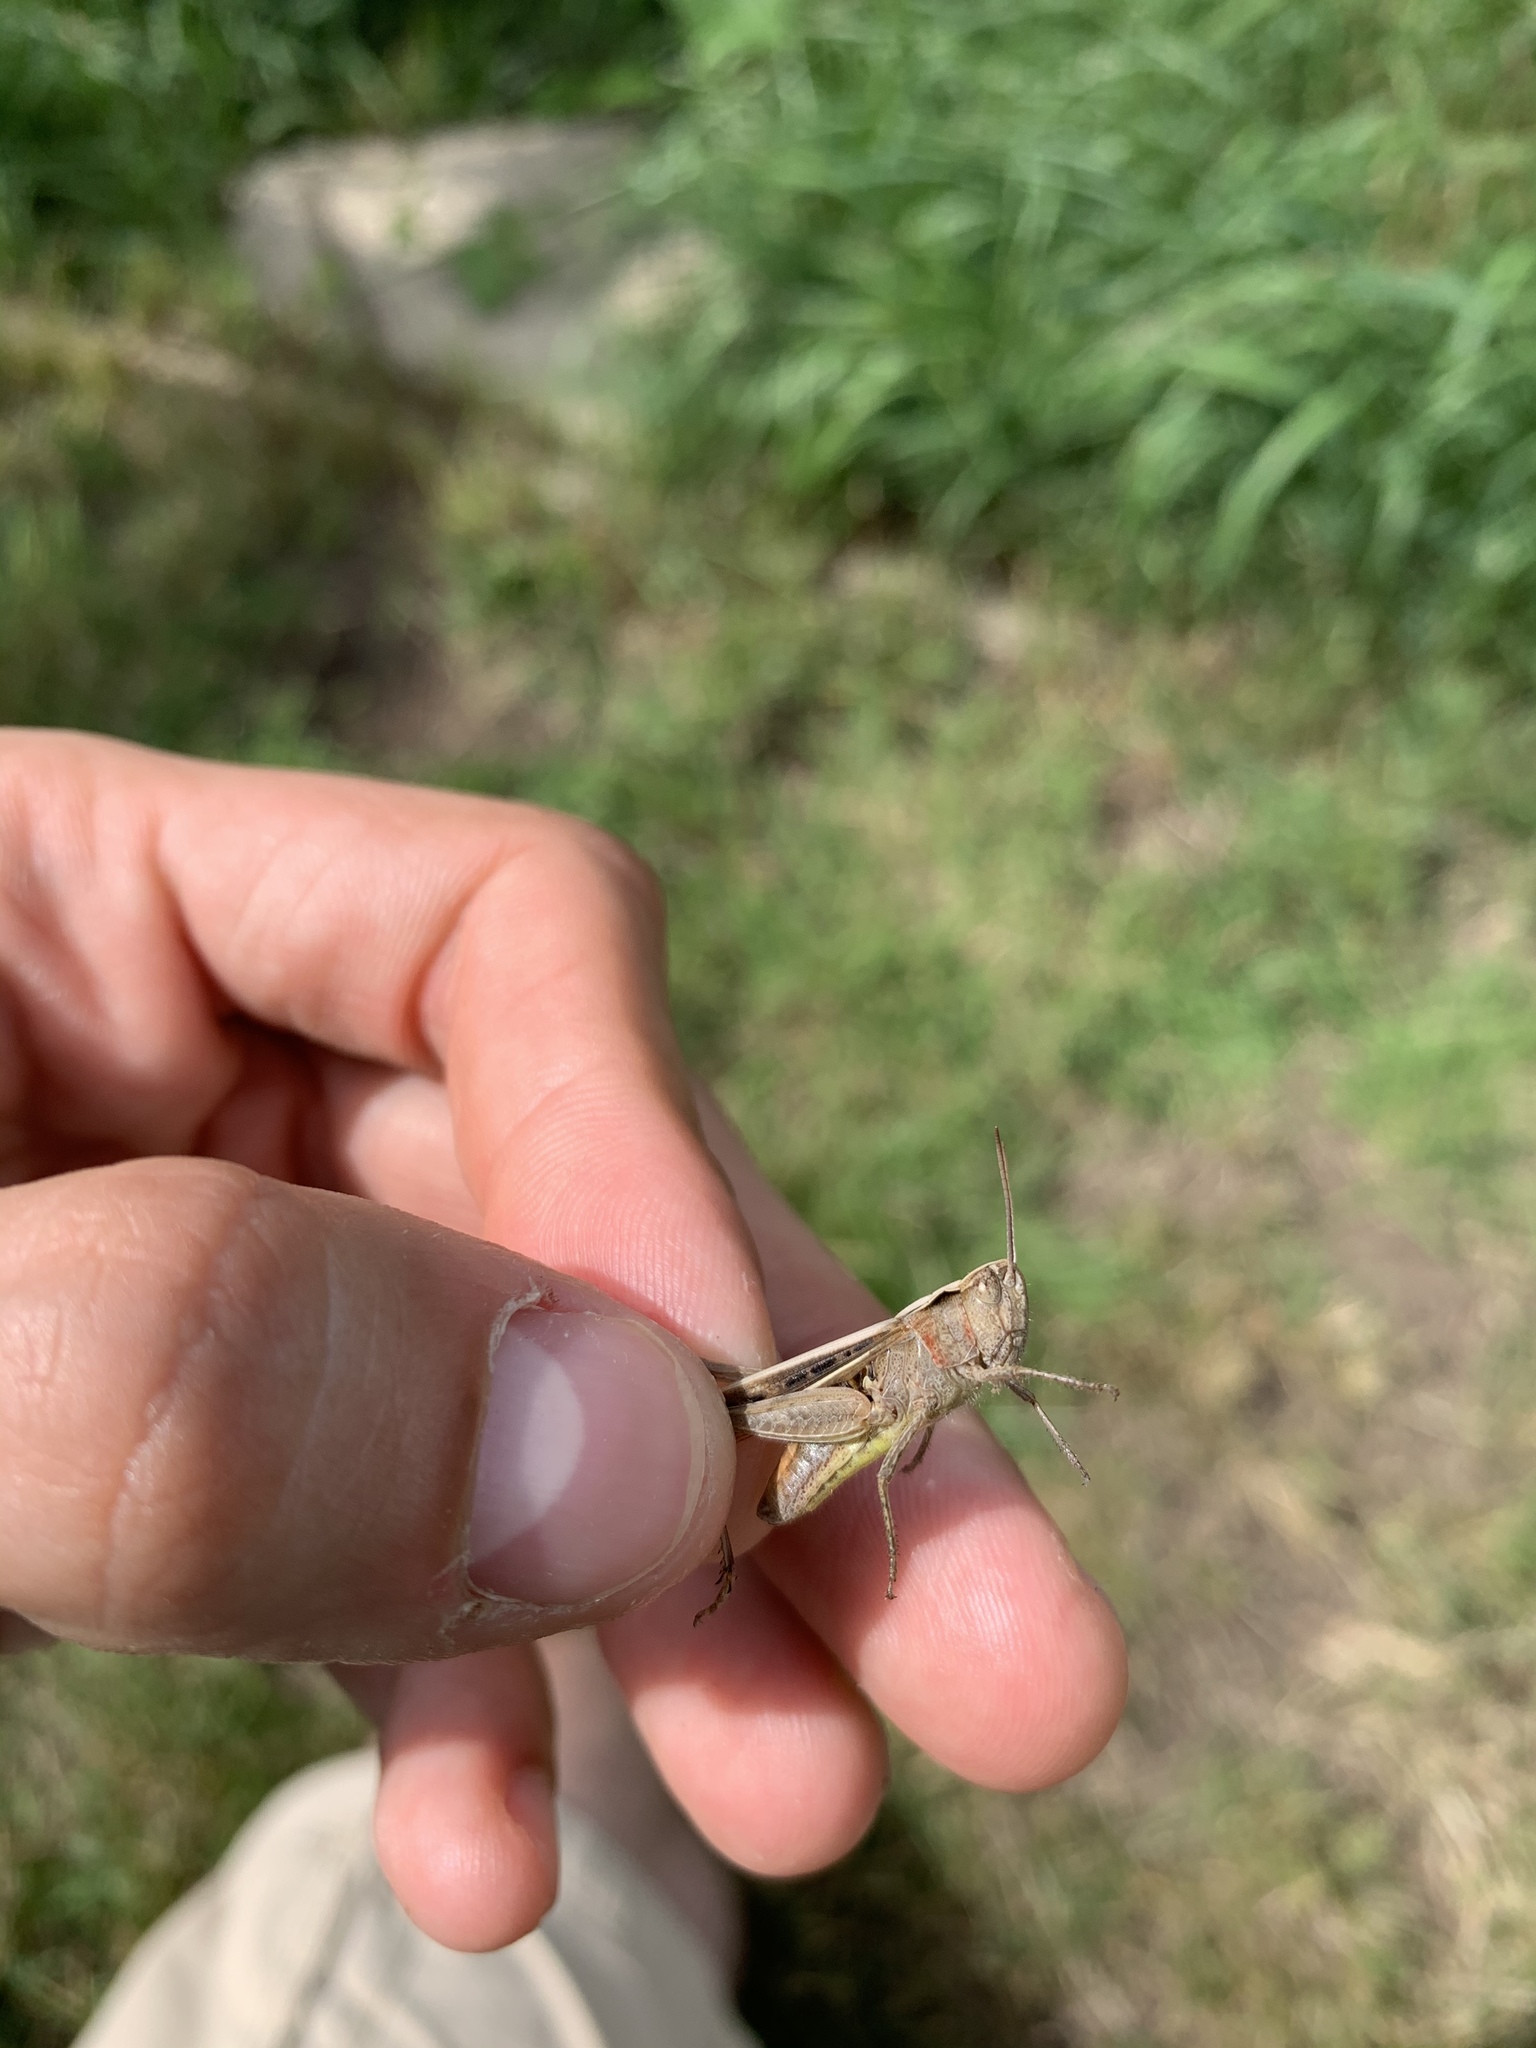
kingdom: Animalia
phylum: Arthropoda
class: Insecta
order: Orthoptera
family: Acrididae
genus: Chorthippus
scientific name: Chorthippus brunneus
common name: Field grasshopper
